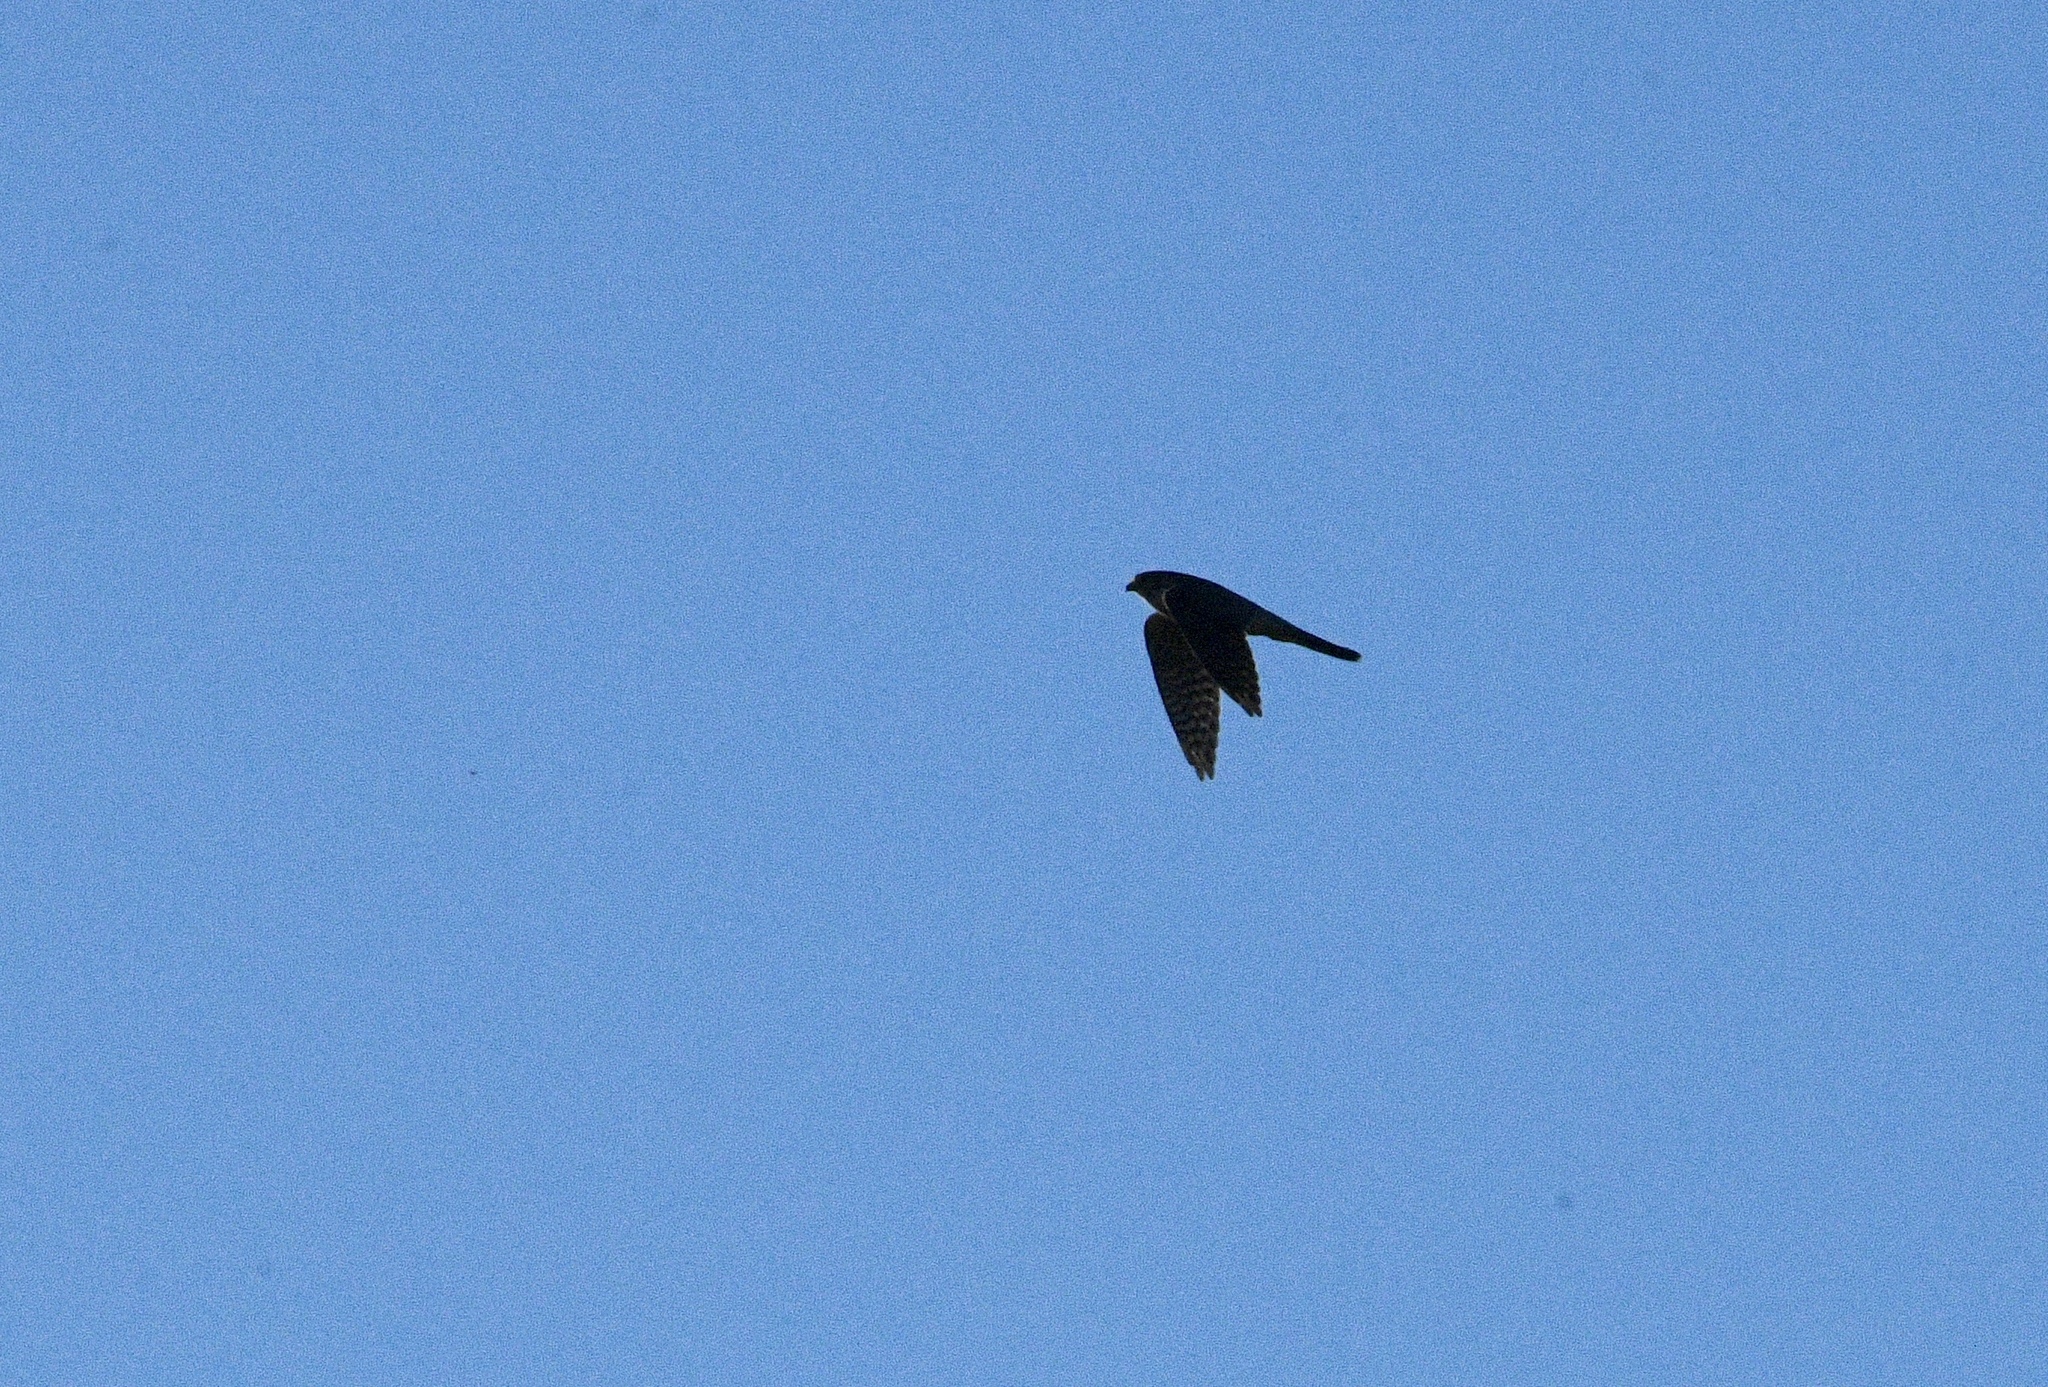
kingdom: Animalia
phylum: Chordata
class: Aves
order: Falconiformes
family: Falconidae
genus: Falco
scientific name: Falco columbarius
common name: Merlin
